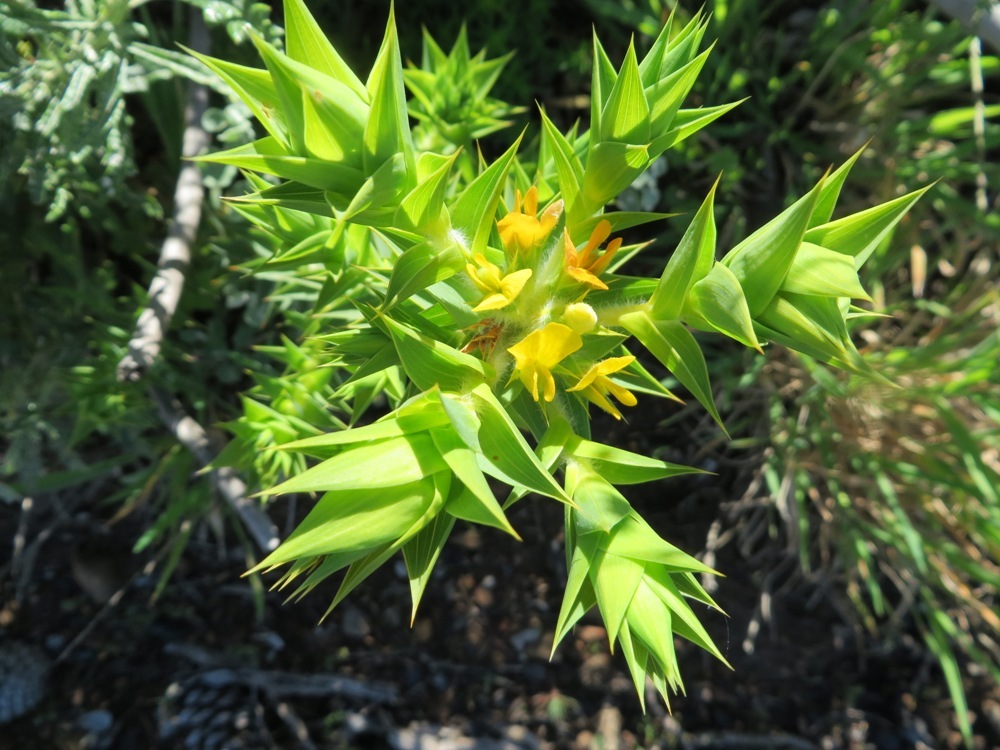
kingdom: Plantae
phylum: Tracheophyta
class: Magnoliopsida
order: Fabales
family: Fabaceae
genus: Aspalathus
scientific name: Aspalathus cordata
